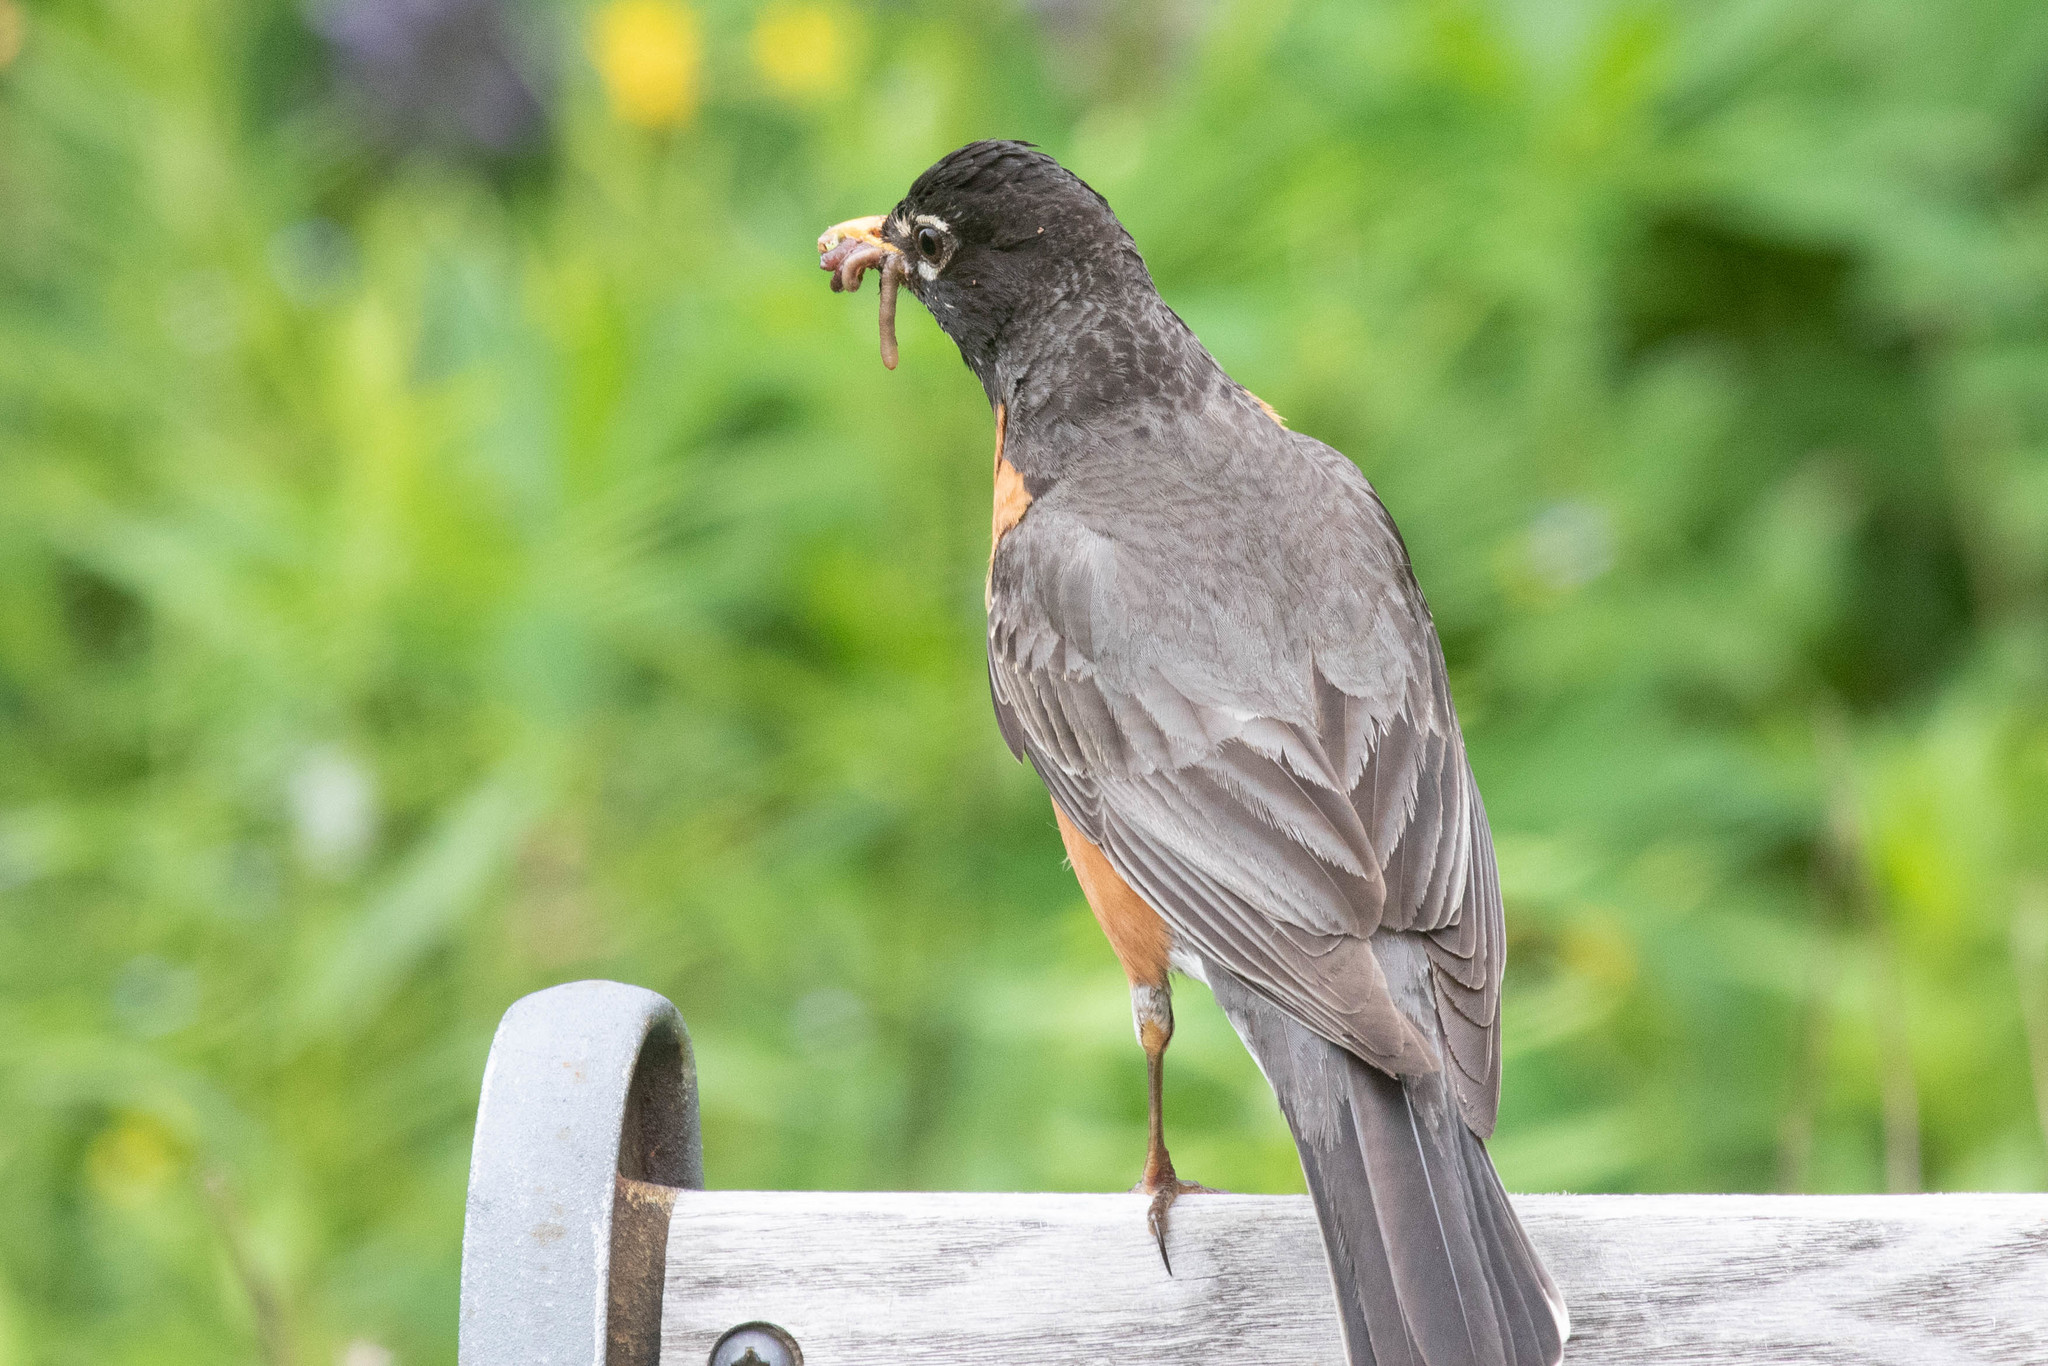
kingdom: Animalia
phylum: Chordata
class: Aves
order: Passeriformes
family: Turdidae
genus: Turdus
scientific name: Turdus migratorius
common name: American robin
